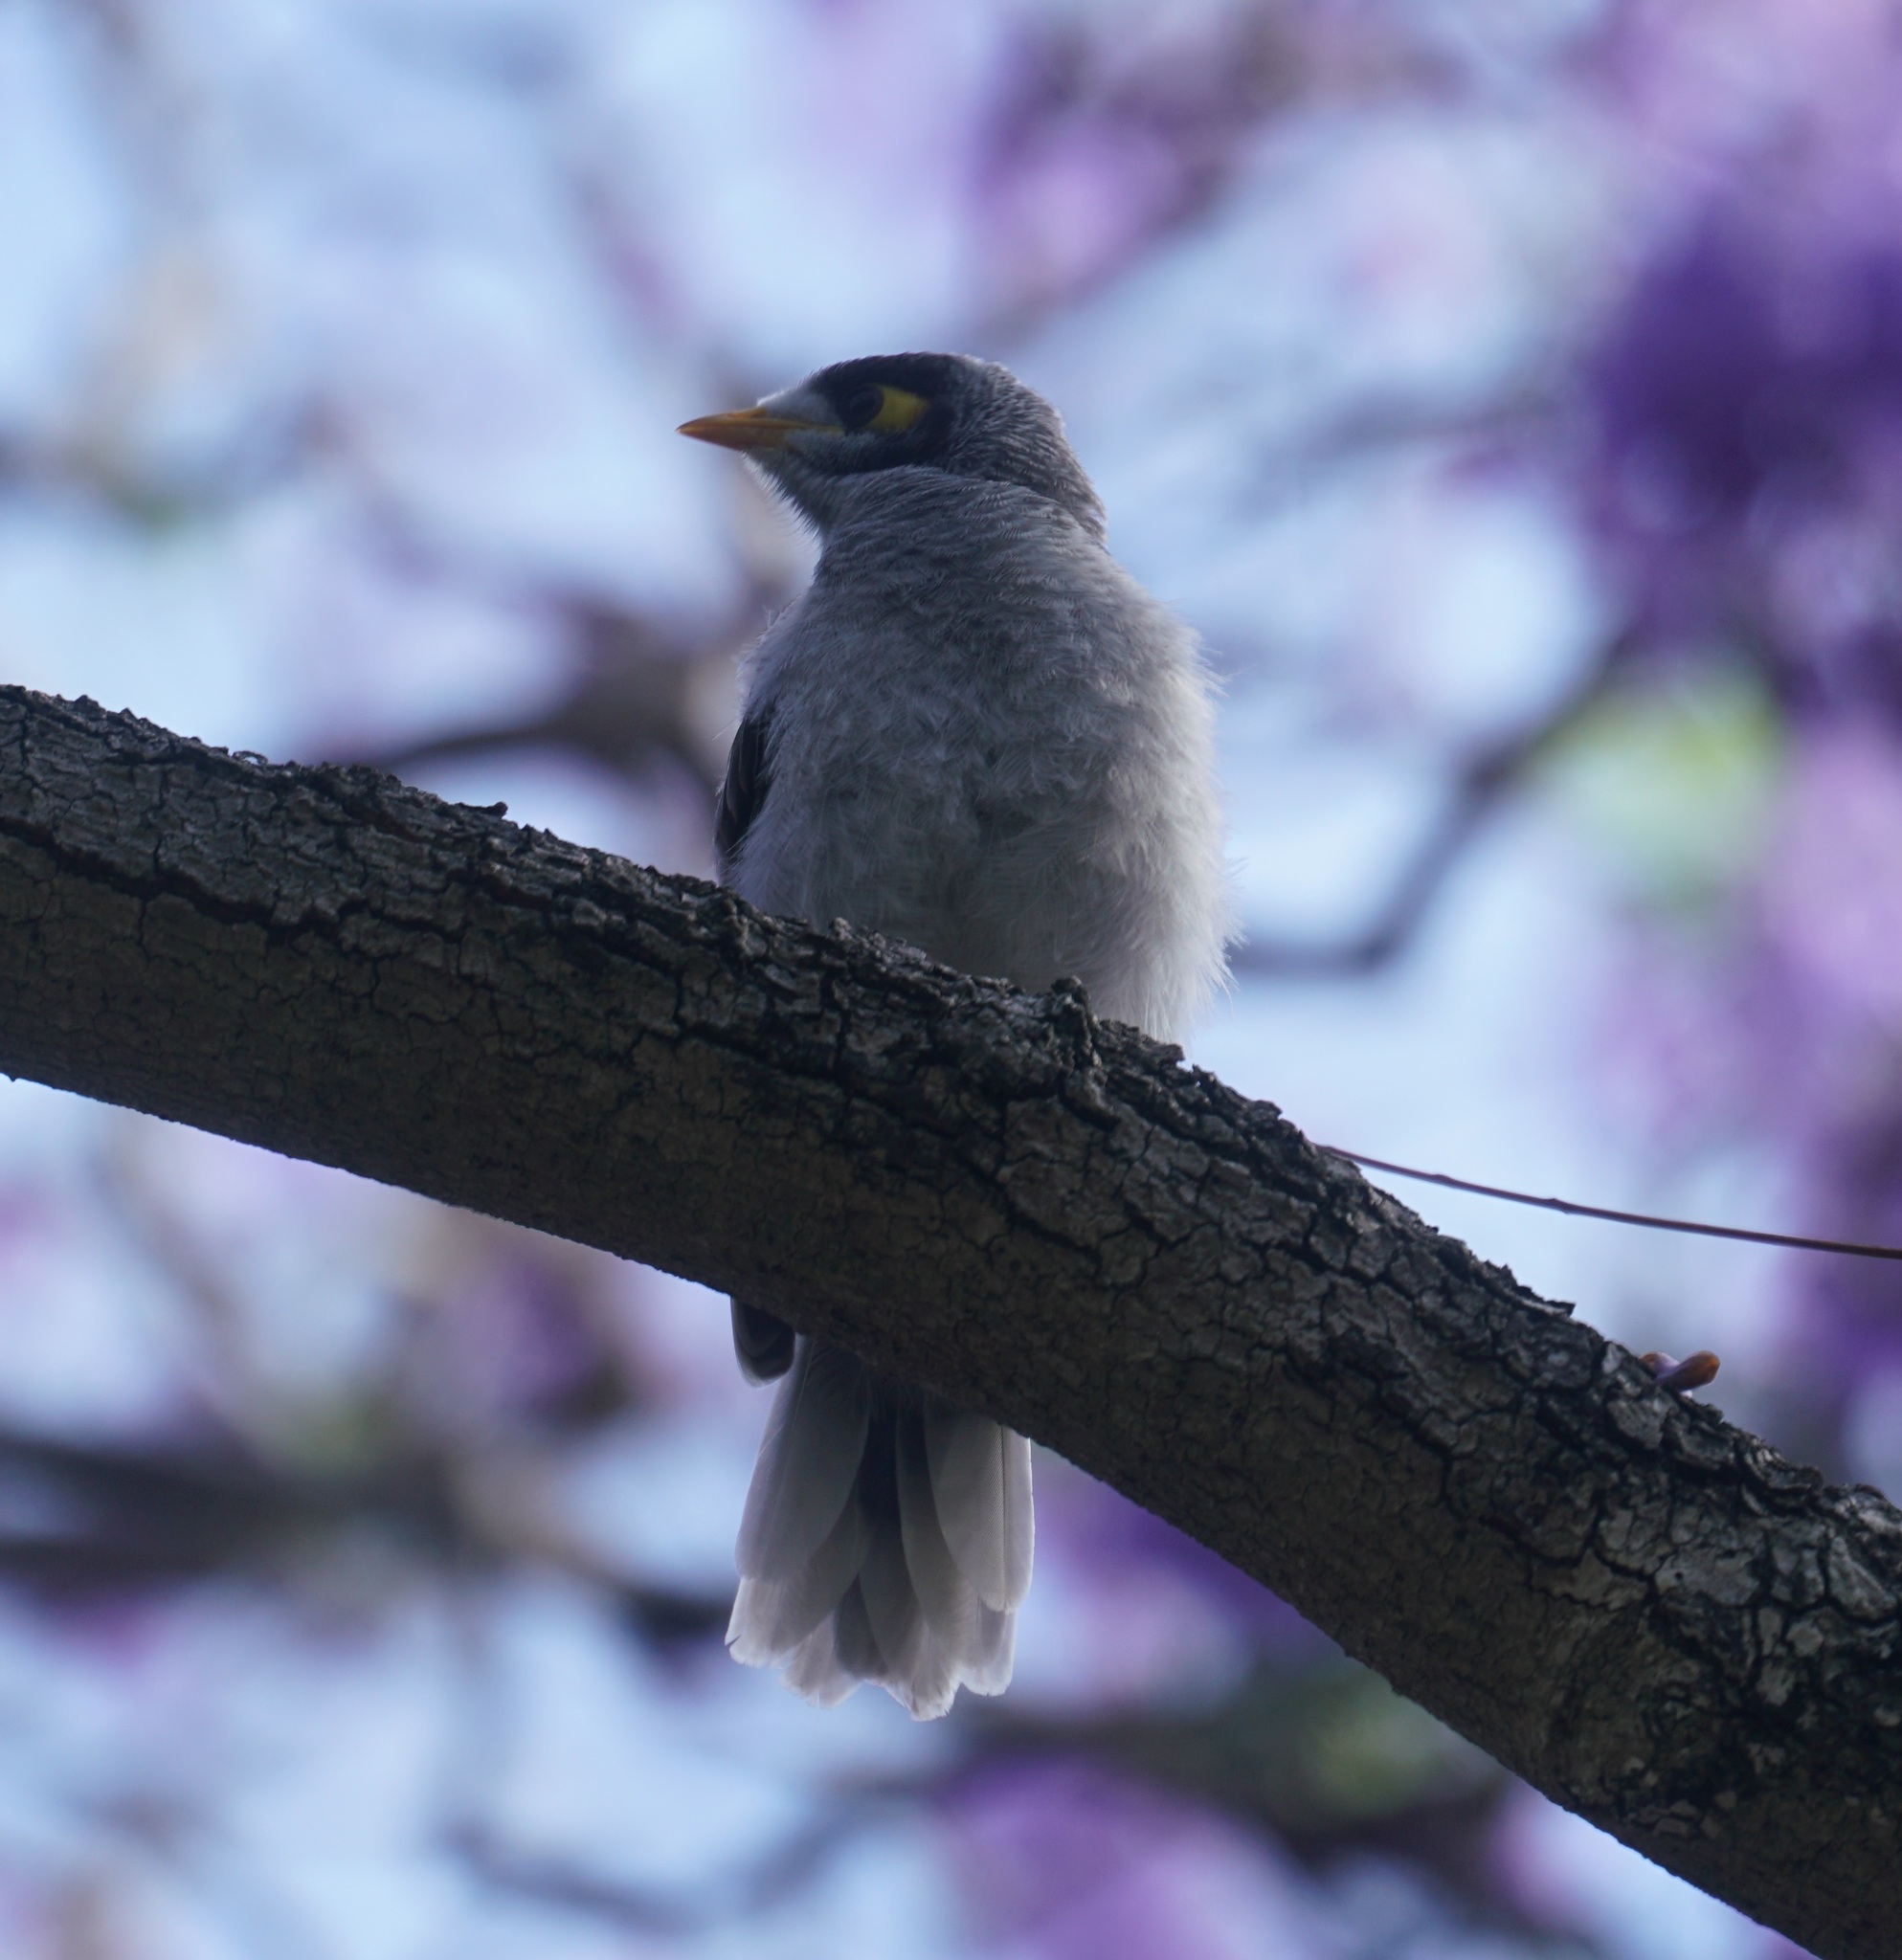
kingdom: Animalia
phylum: Chordata
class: Aves
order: Passeriformes
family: Meliphagidae
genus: Manorina
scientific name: Manorina melanocephala
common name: Noisy miner
